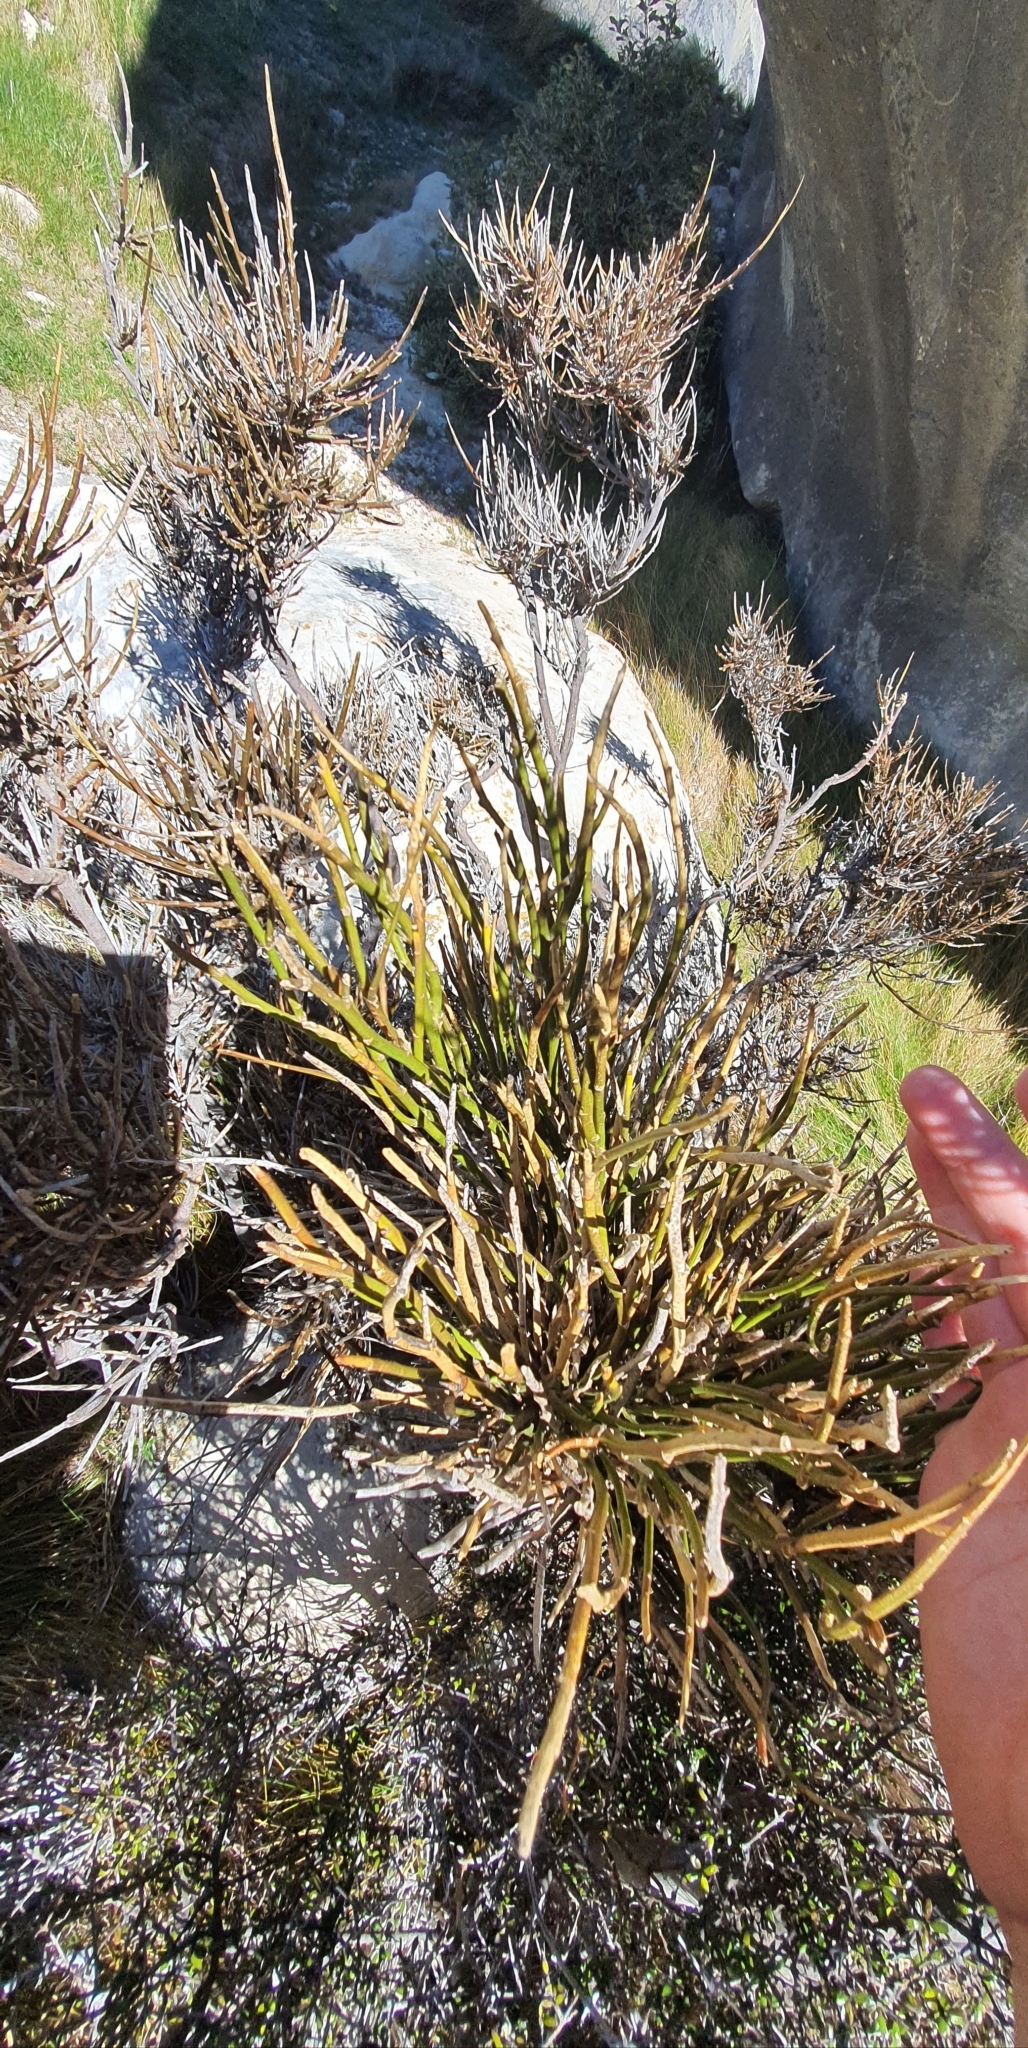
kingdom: Plantae
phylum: Tracheophyta
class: Magnoliopsida
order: Fabales
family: Fabaceae
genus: Carmichaelia
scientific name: Carmichaelia australis
